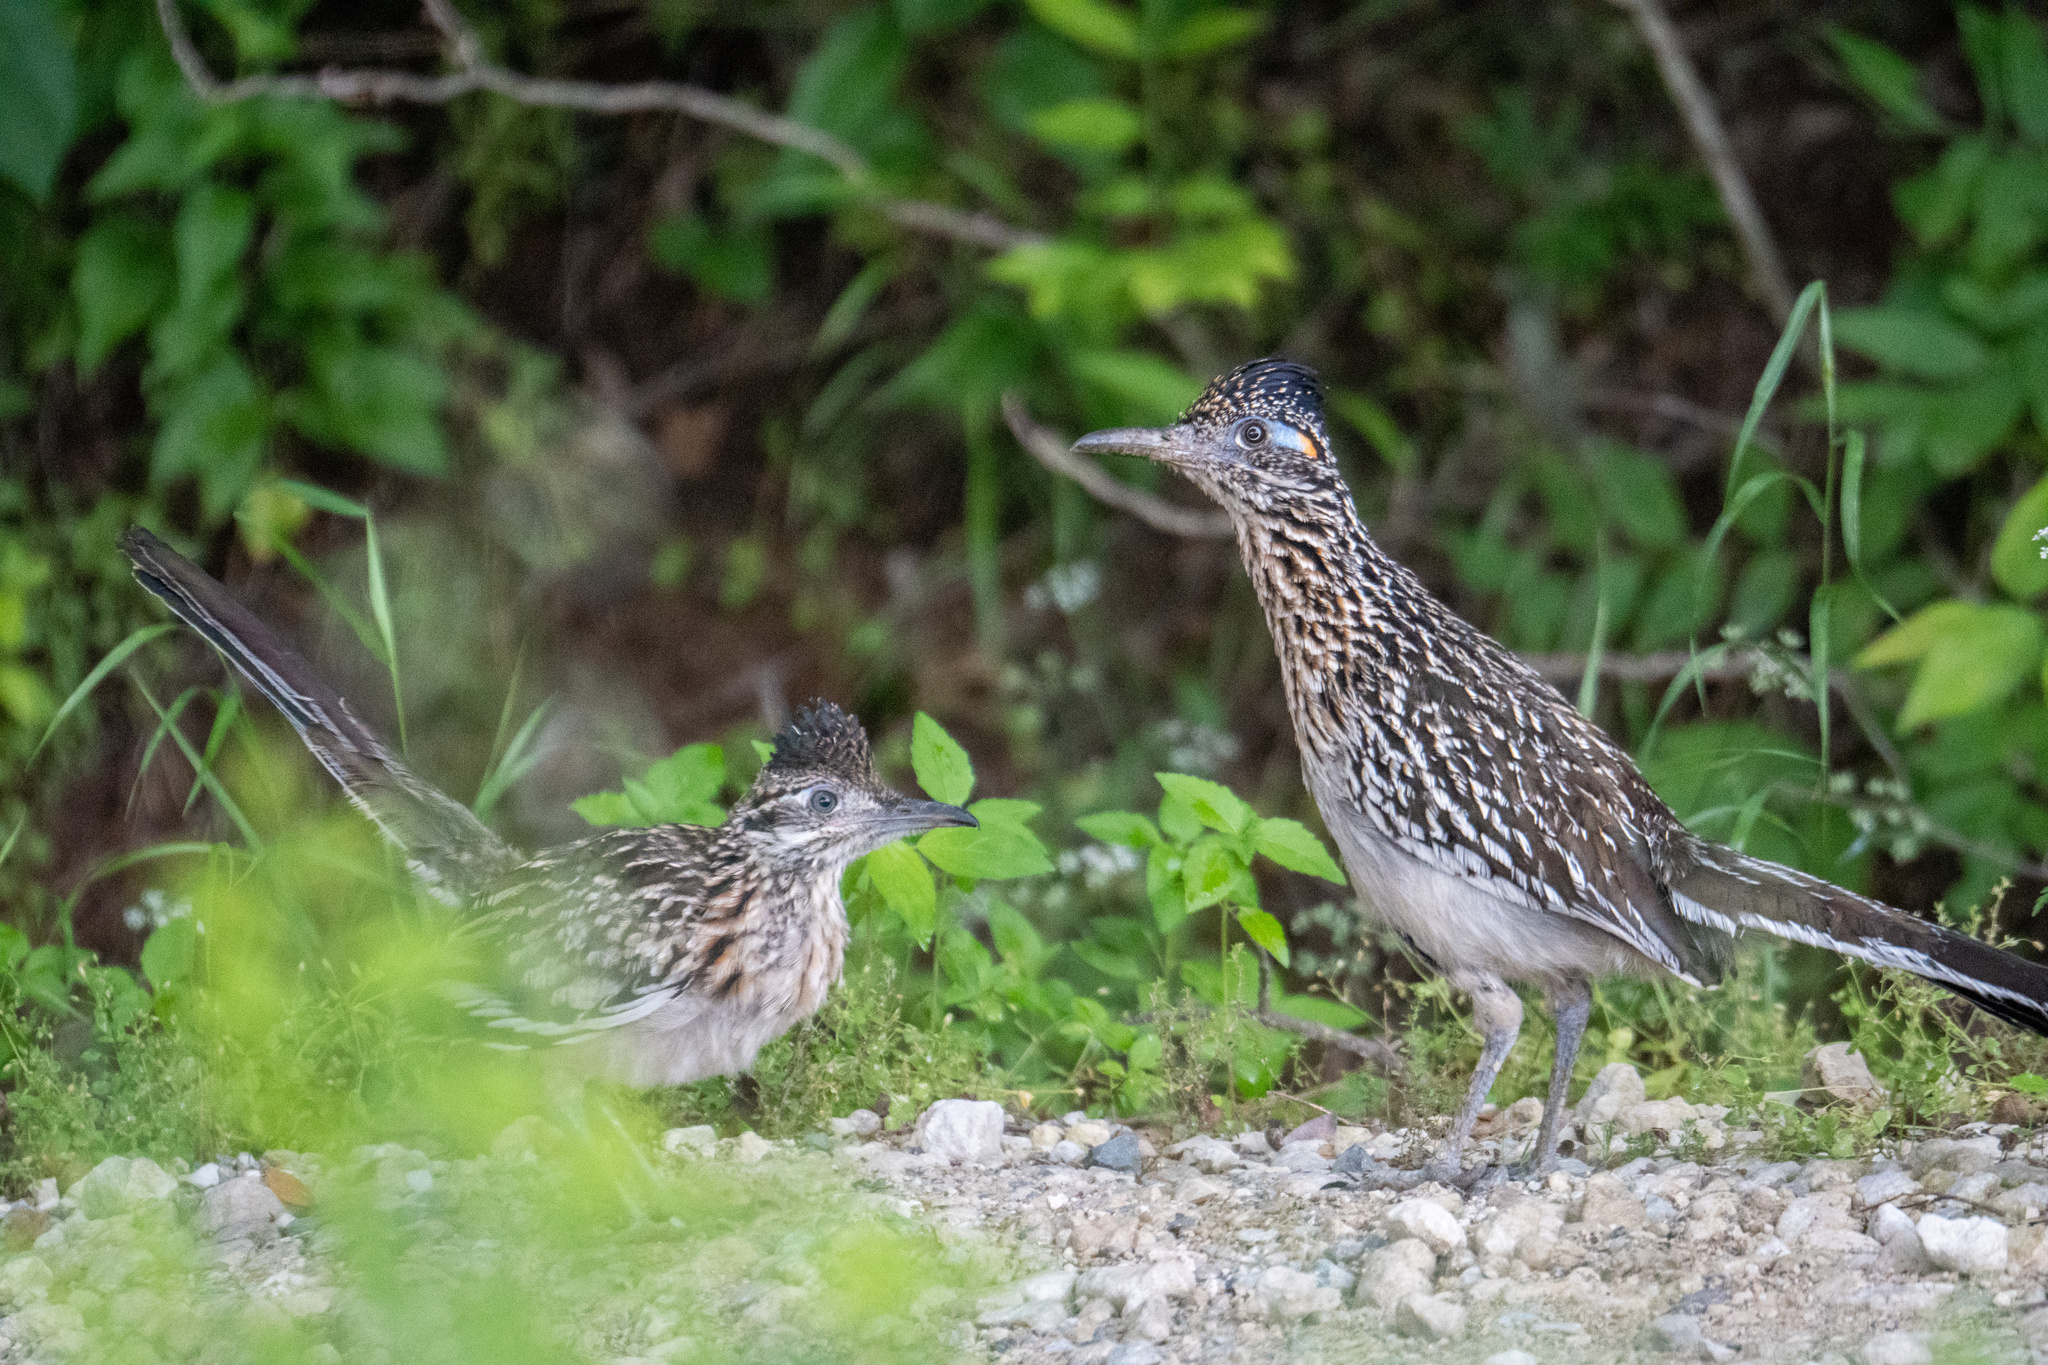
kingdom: Animalia
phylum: Chordata
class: Aves
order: Cuculiformes
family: Cuculidae
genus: Geococcyx
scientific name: Geococcyx californianus
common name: Greater roadrunner
